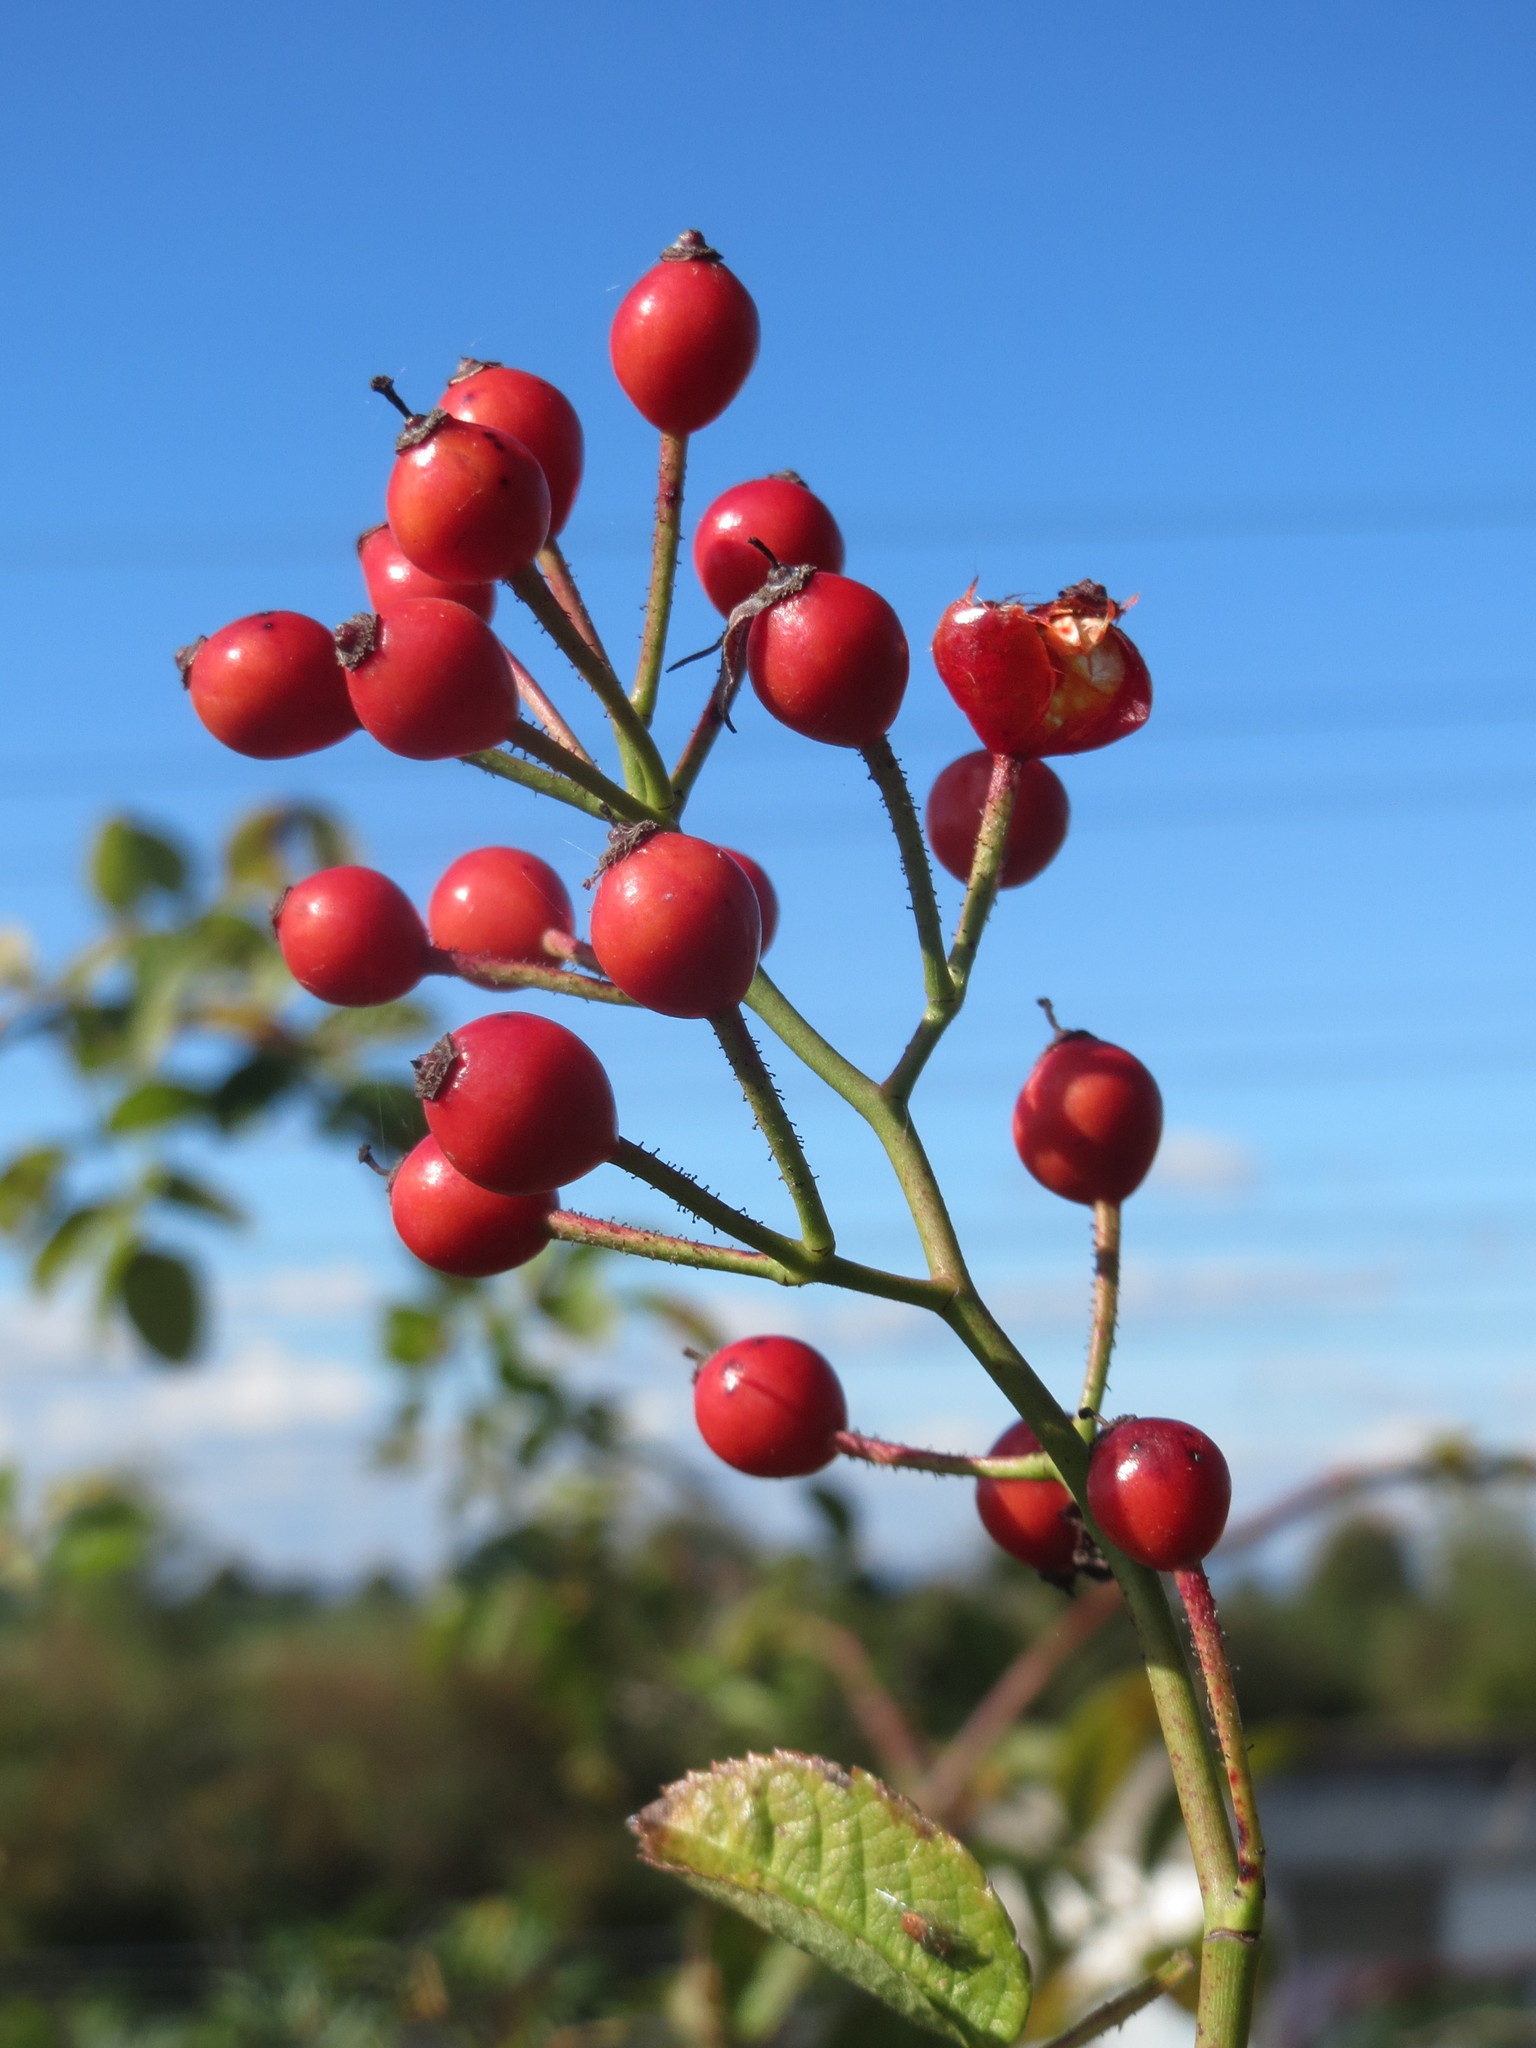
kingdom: Plantae
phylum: Tracheophyta
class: Magnoliopsida
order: Rosales
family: Rosaceae
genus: Rosa
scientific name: Rosa multiflora
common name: Multiflora rose
